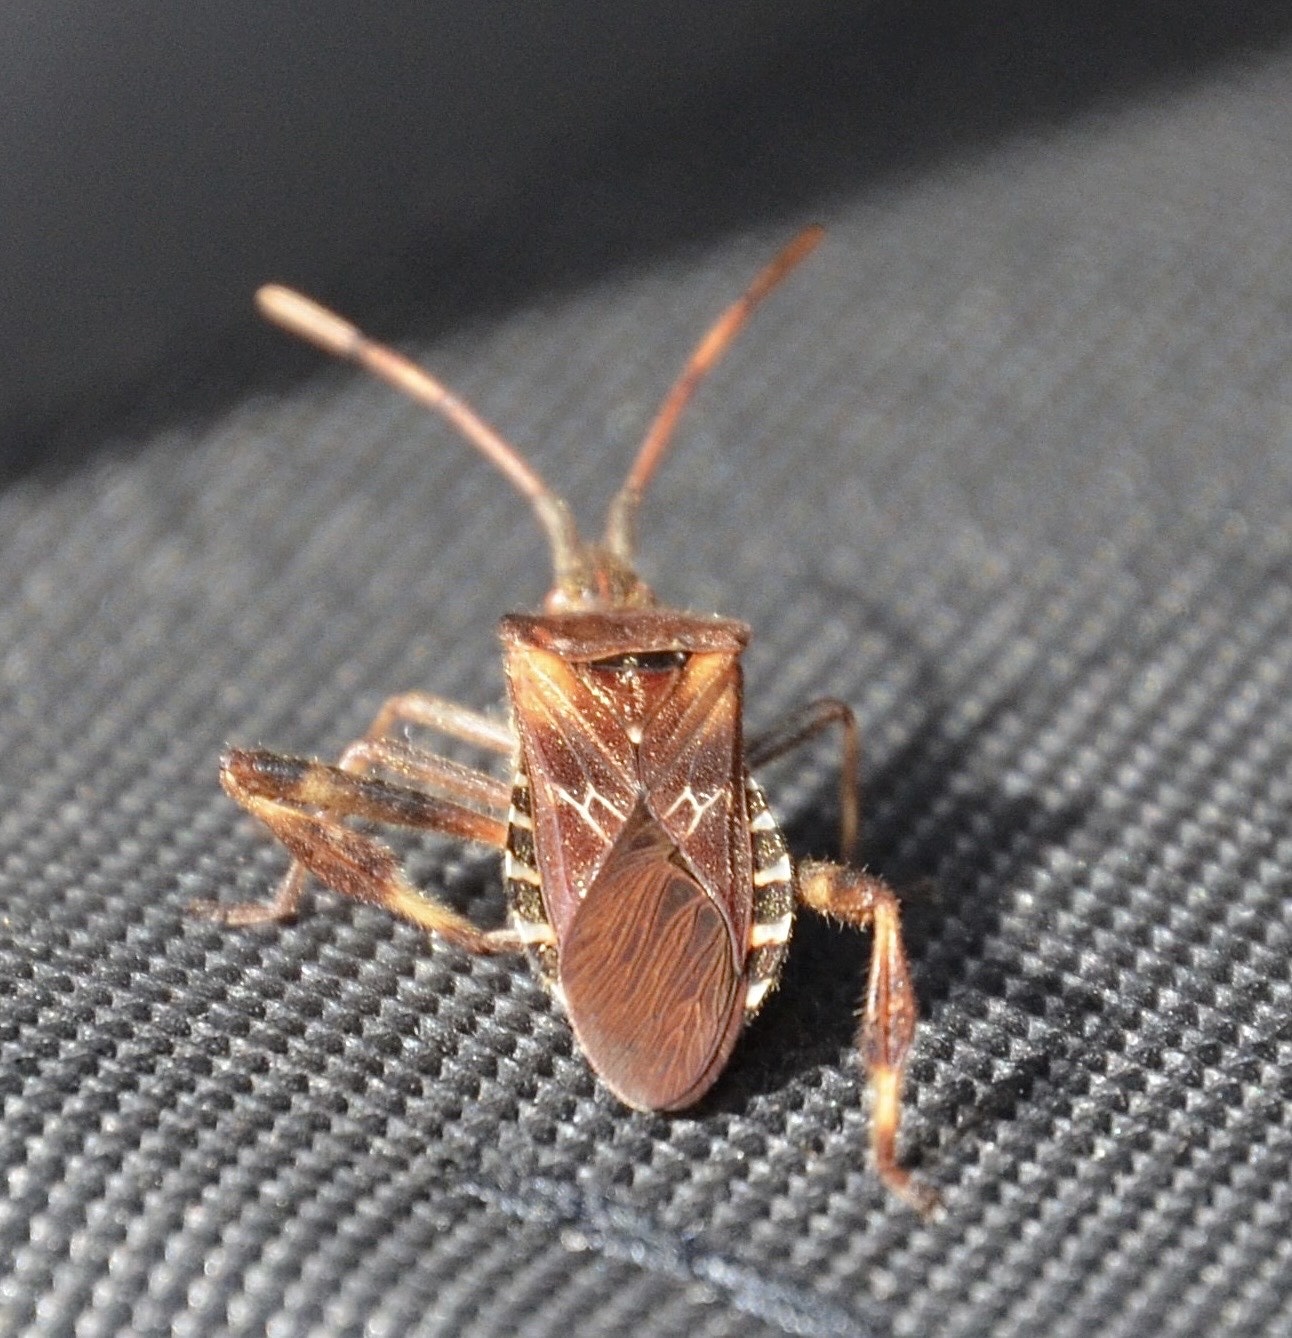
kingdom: Animalia
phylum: Arthropoda
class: Insecta
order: Hemiptera
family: Coreidae
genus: Leptoglossus
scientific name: Leptoglossus occidentalis
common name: Western conifer-seed bug
